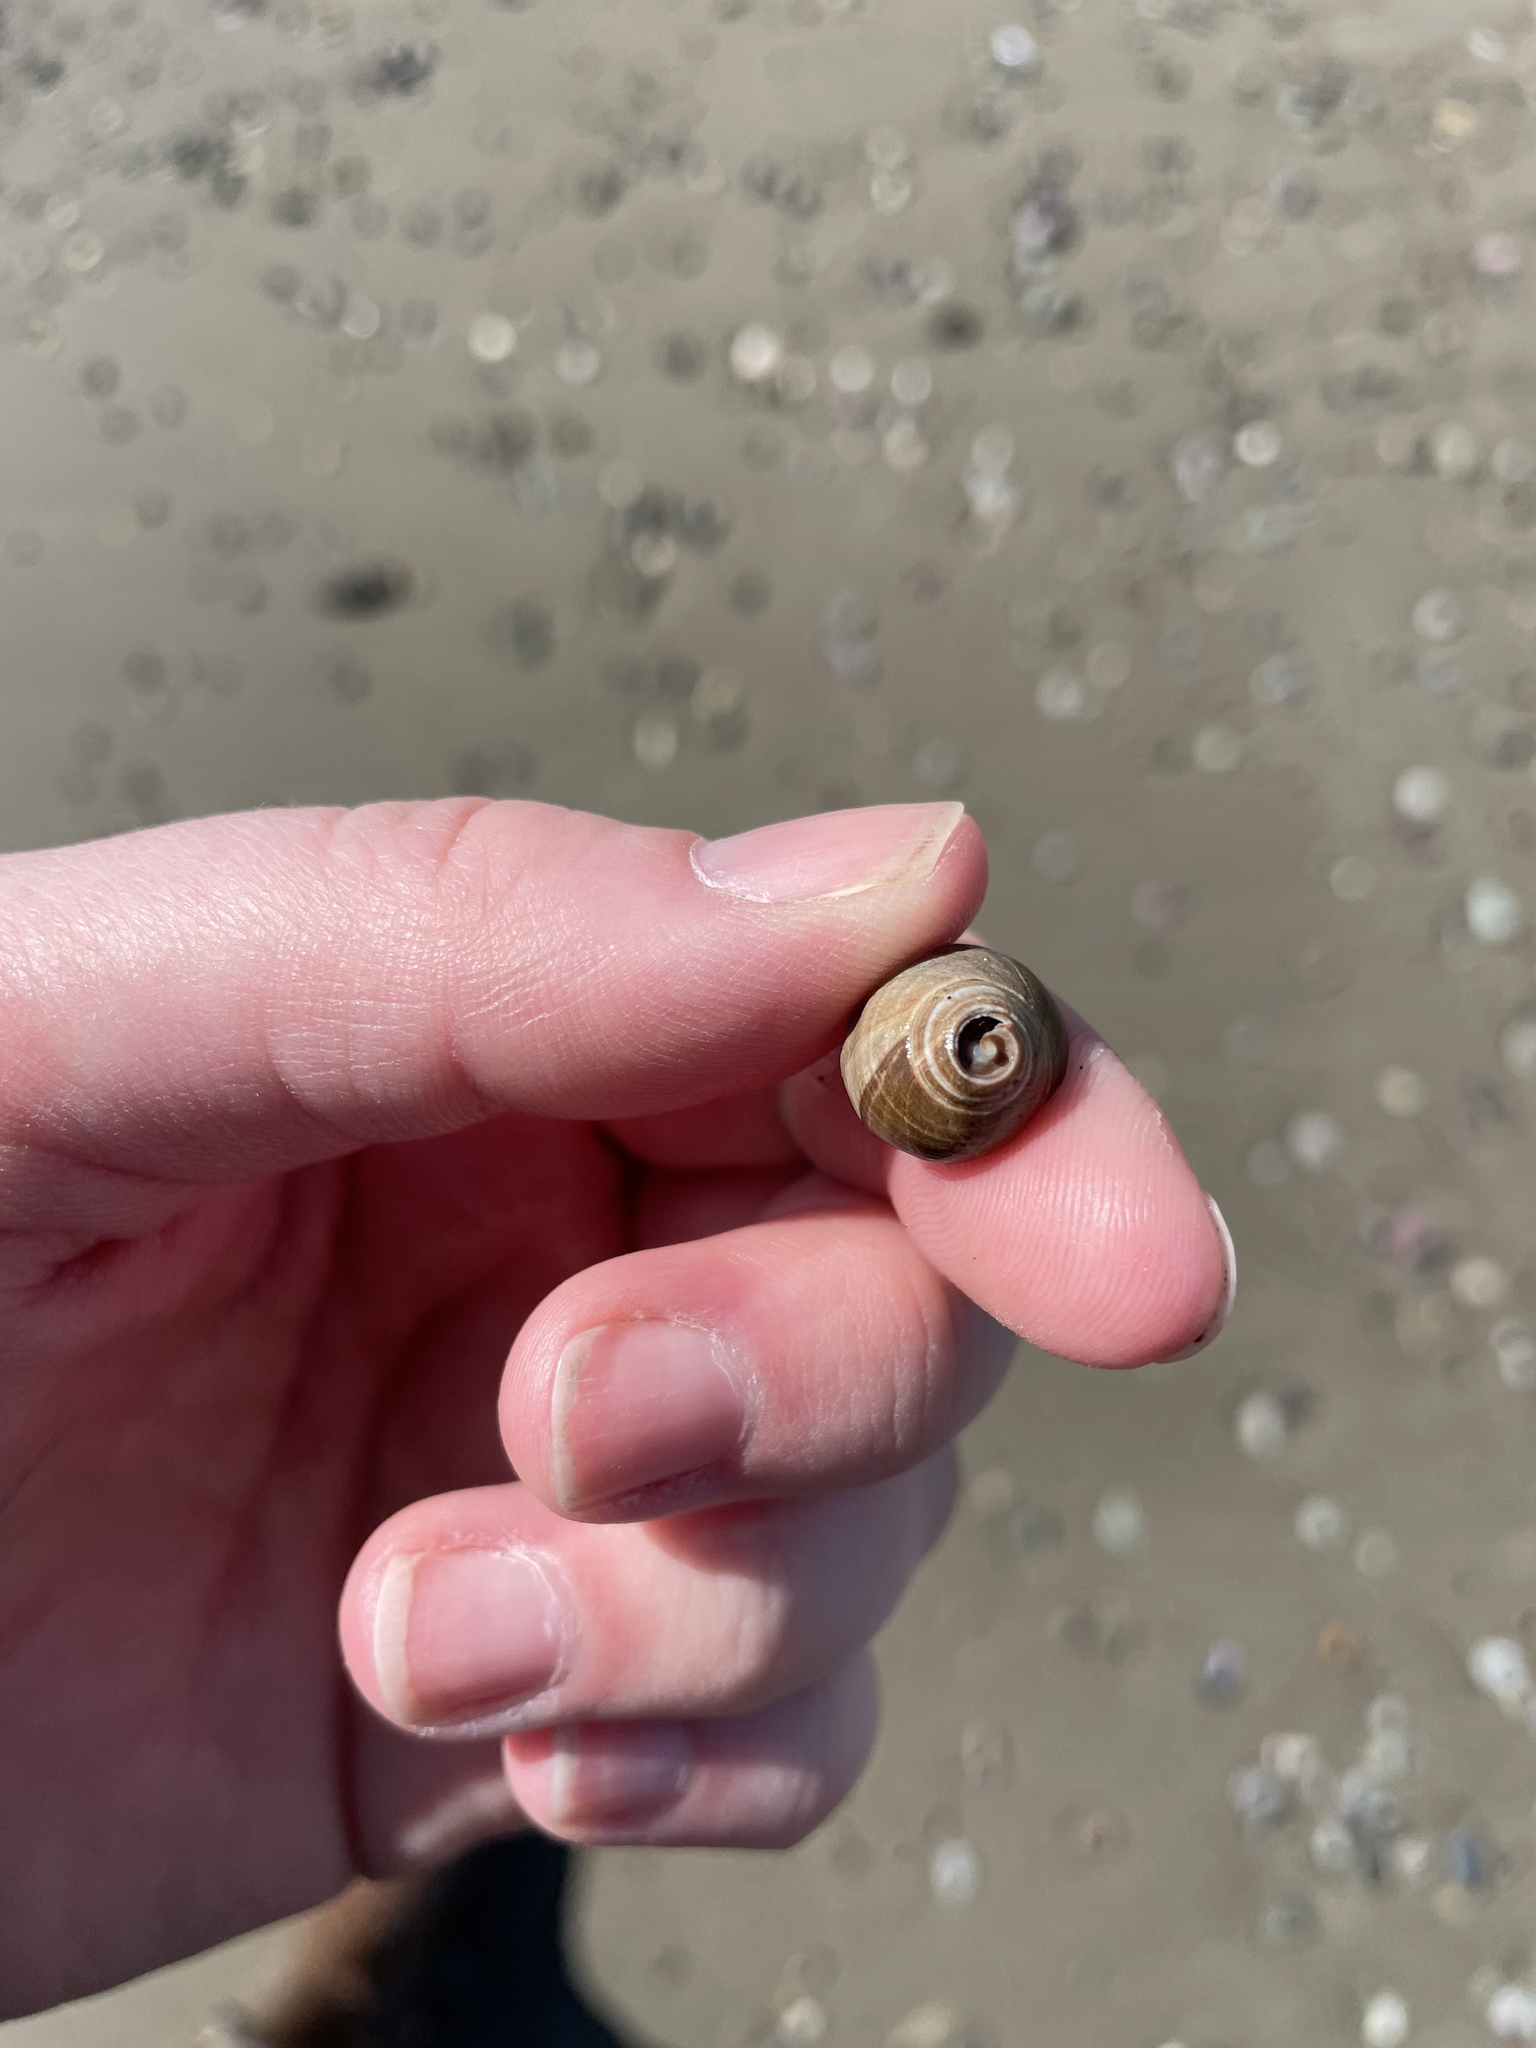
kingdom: Animalia
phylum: Mollusca
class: Gastropoda
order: Littorinimorpha
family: Littorinidae
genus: Littorina
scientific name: Littorina littorea
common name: Common periwinkle
